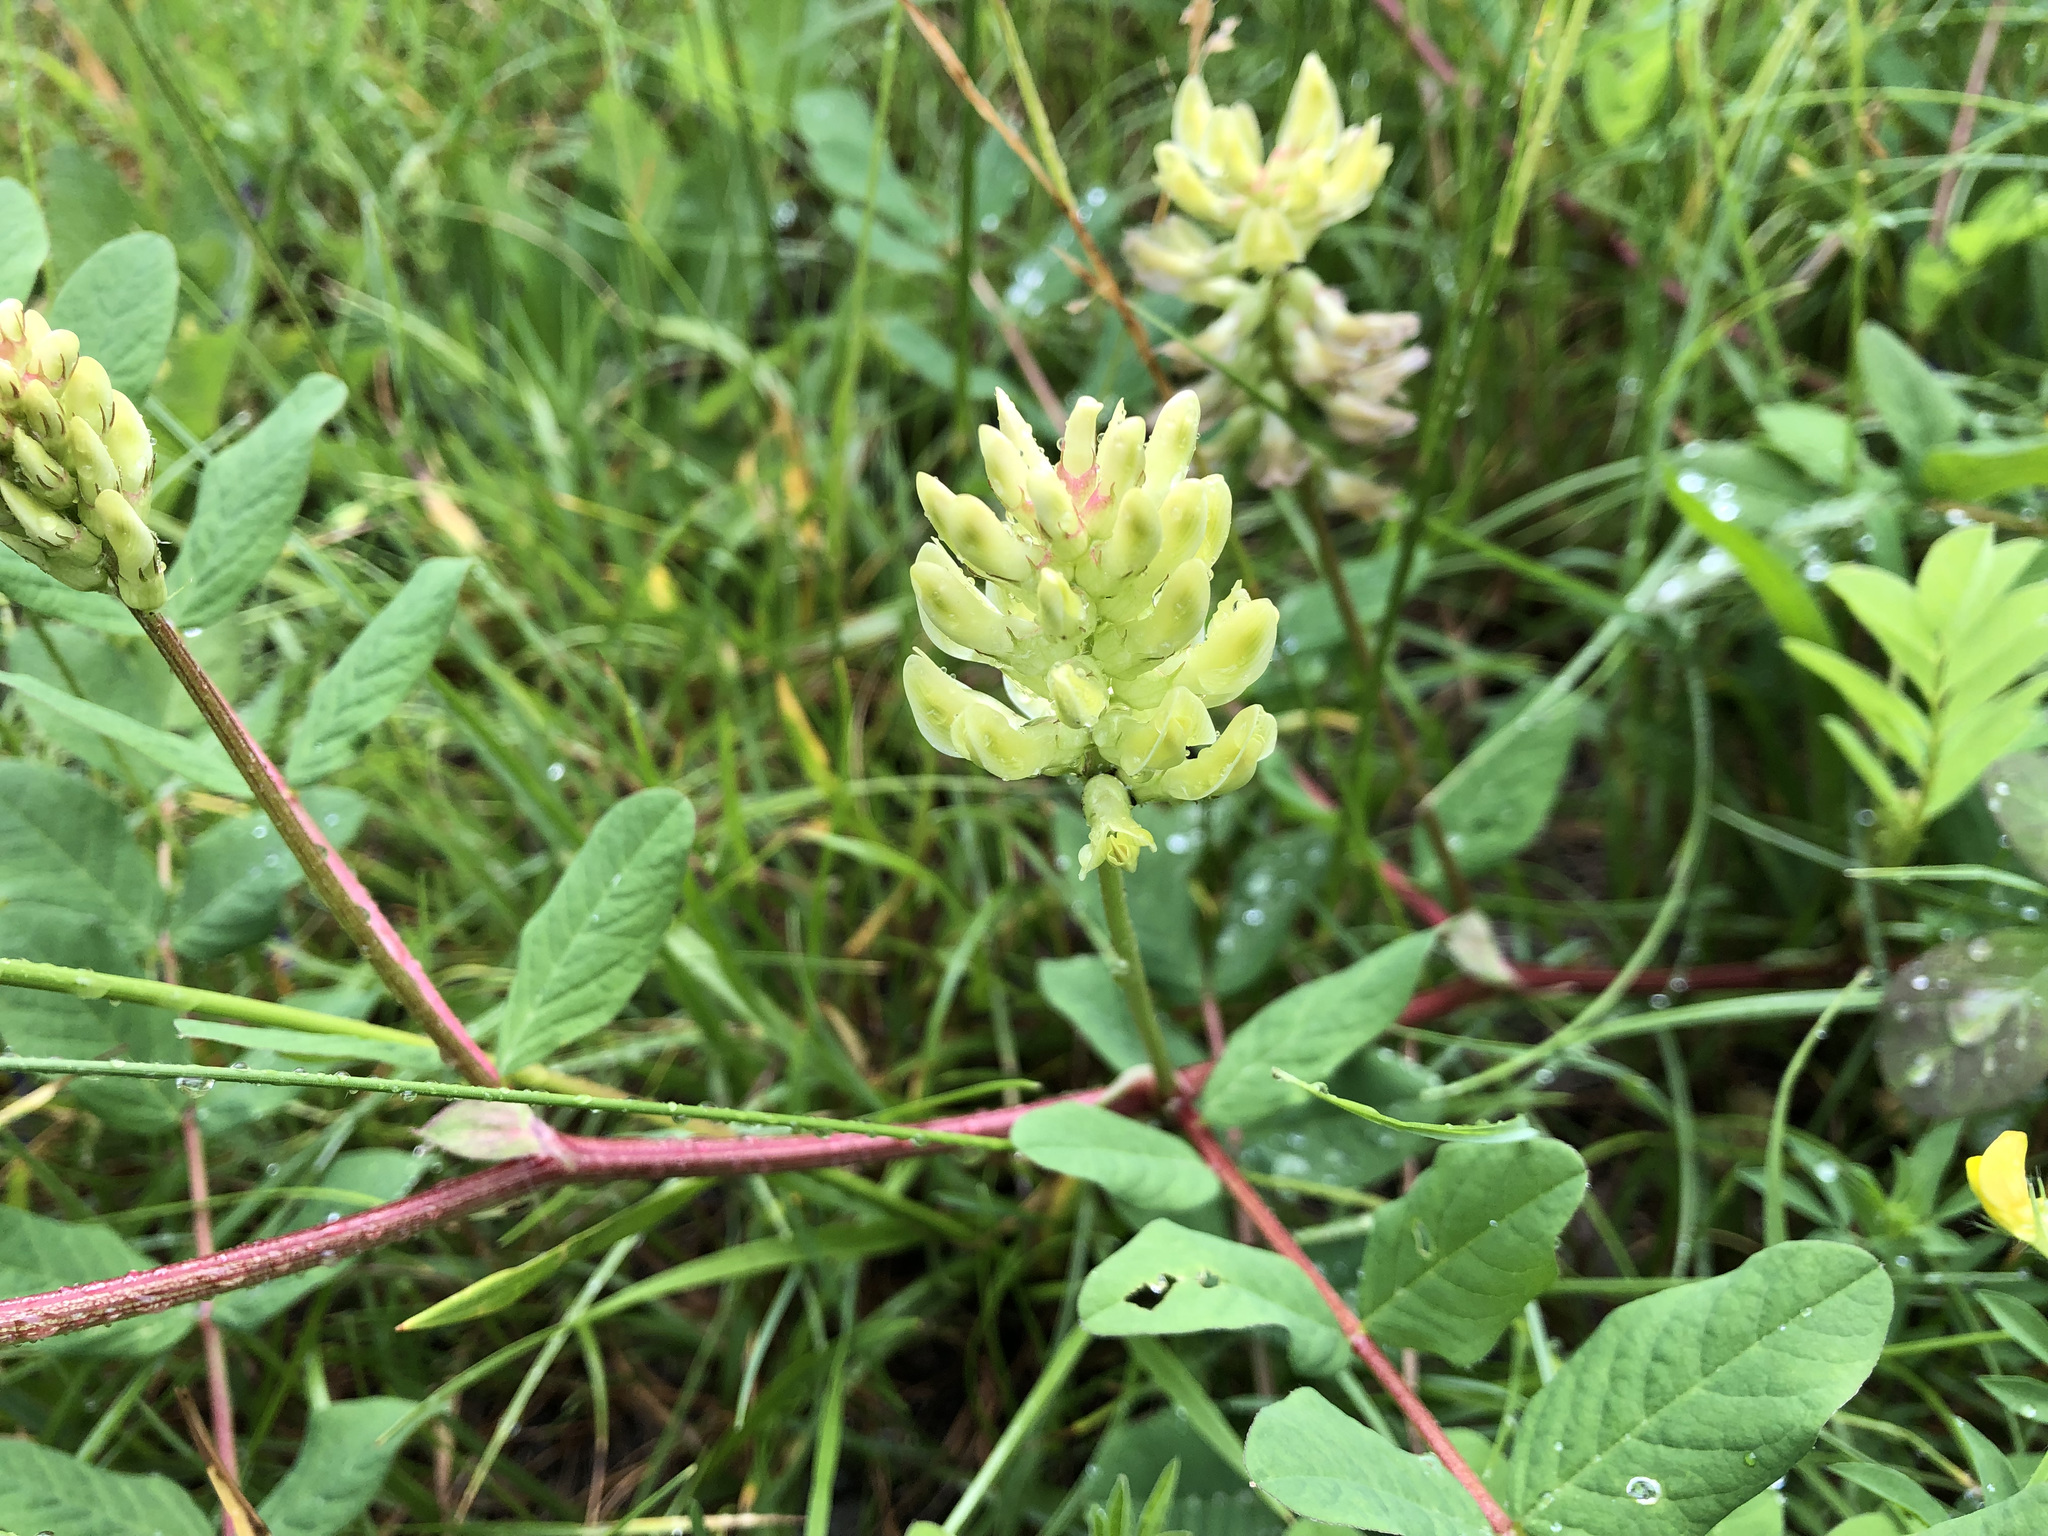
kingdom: Plantae
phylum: Tracheophyta
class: Magnoliopsida
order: Fabales
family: Fabaceae
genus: Astragalus
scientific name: Astragalus glycyphyllos
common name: Wild liquorice
